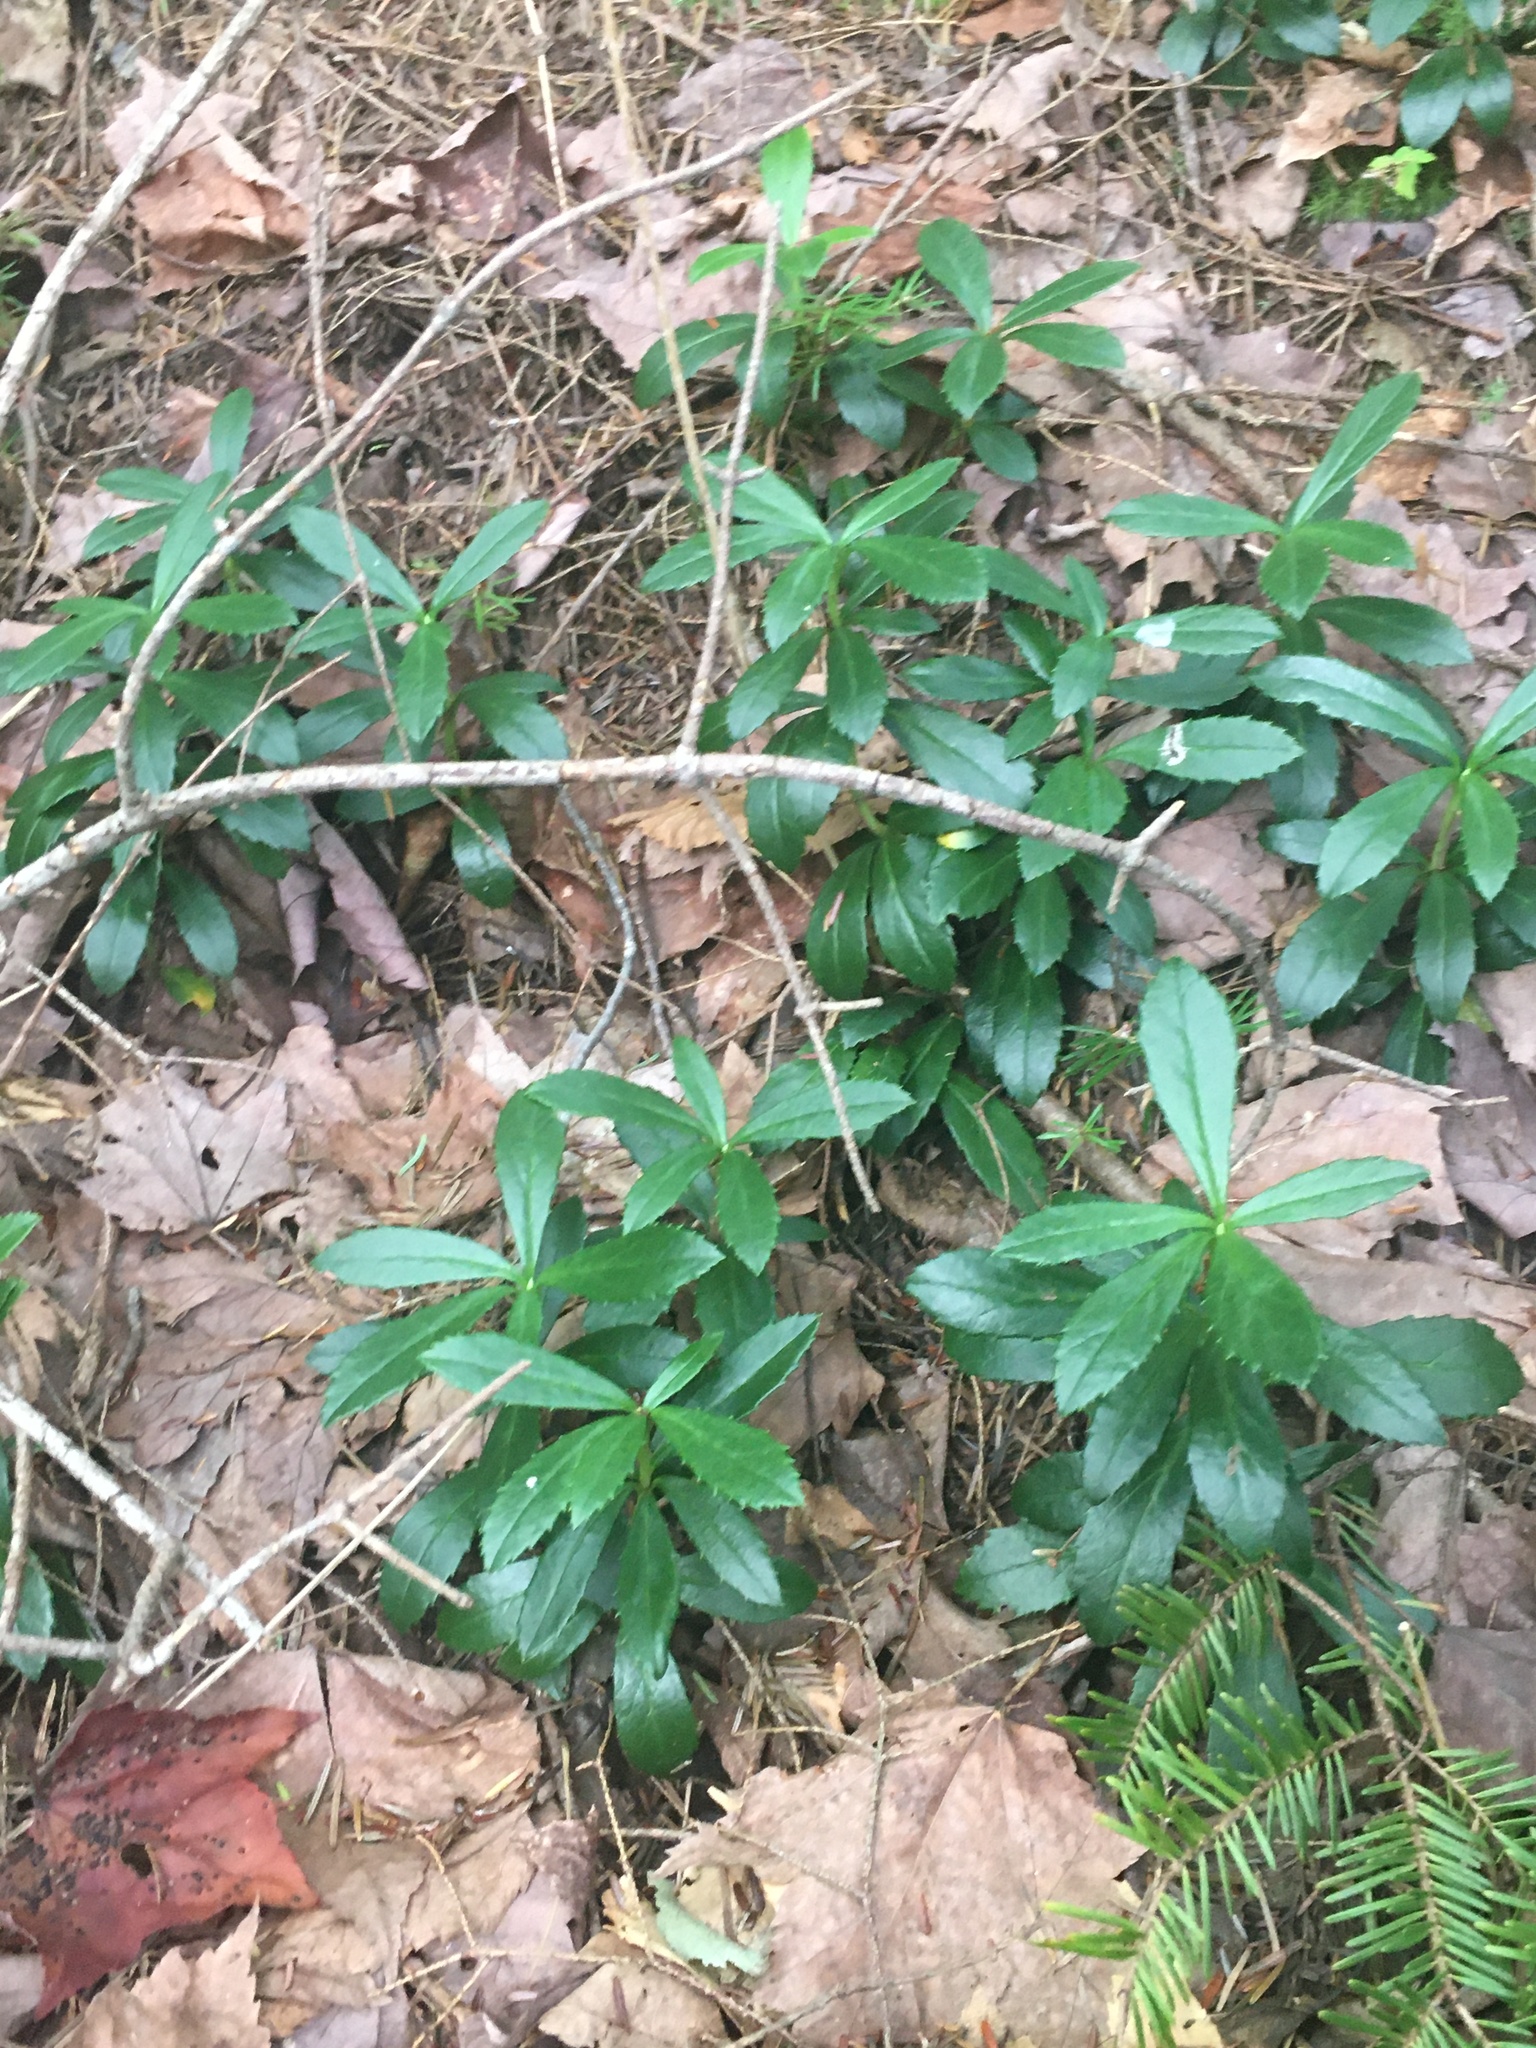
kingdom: Plantae
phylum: Tracheophyta
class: Magnoliopsida
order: Ericales
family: Ericaceae
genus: Chimaphila
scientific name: Chimaphila umbellata
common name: Pipsissewa
